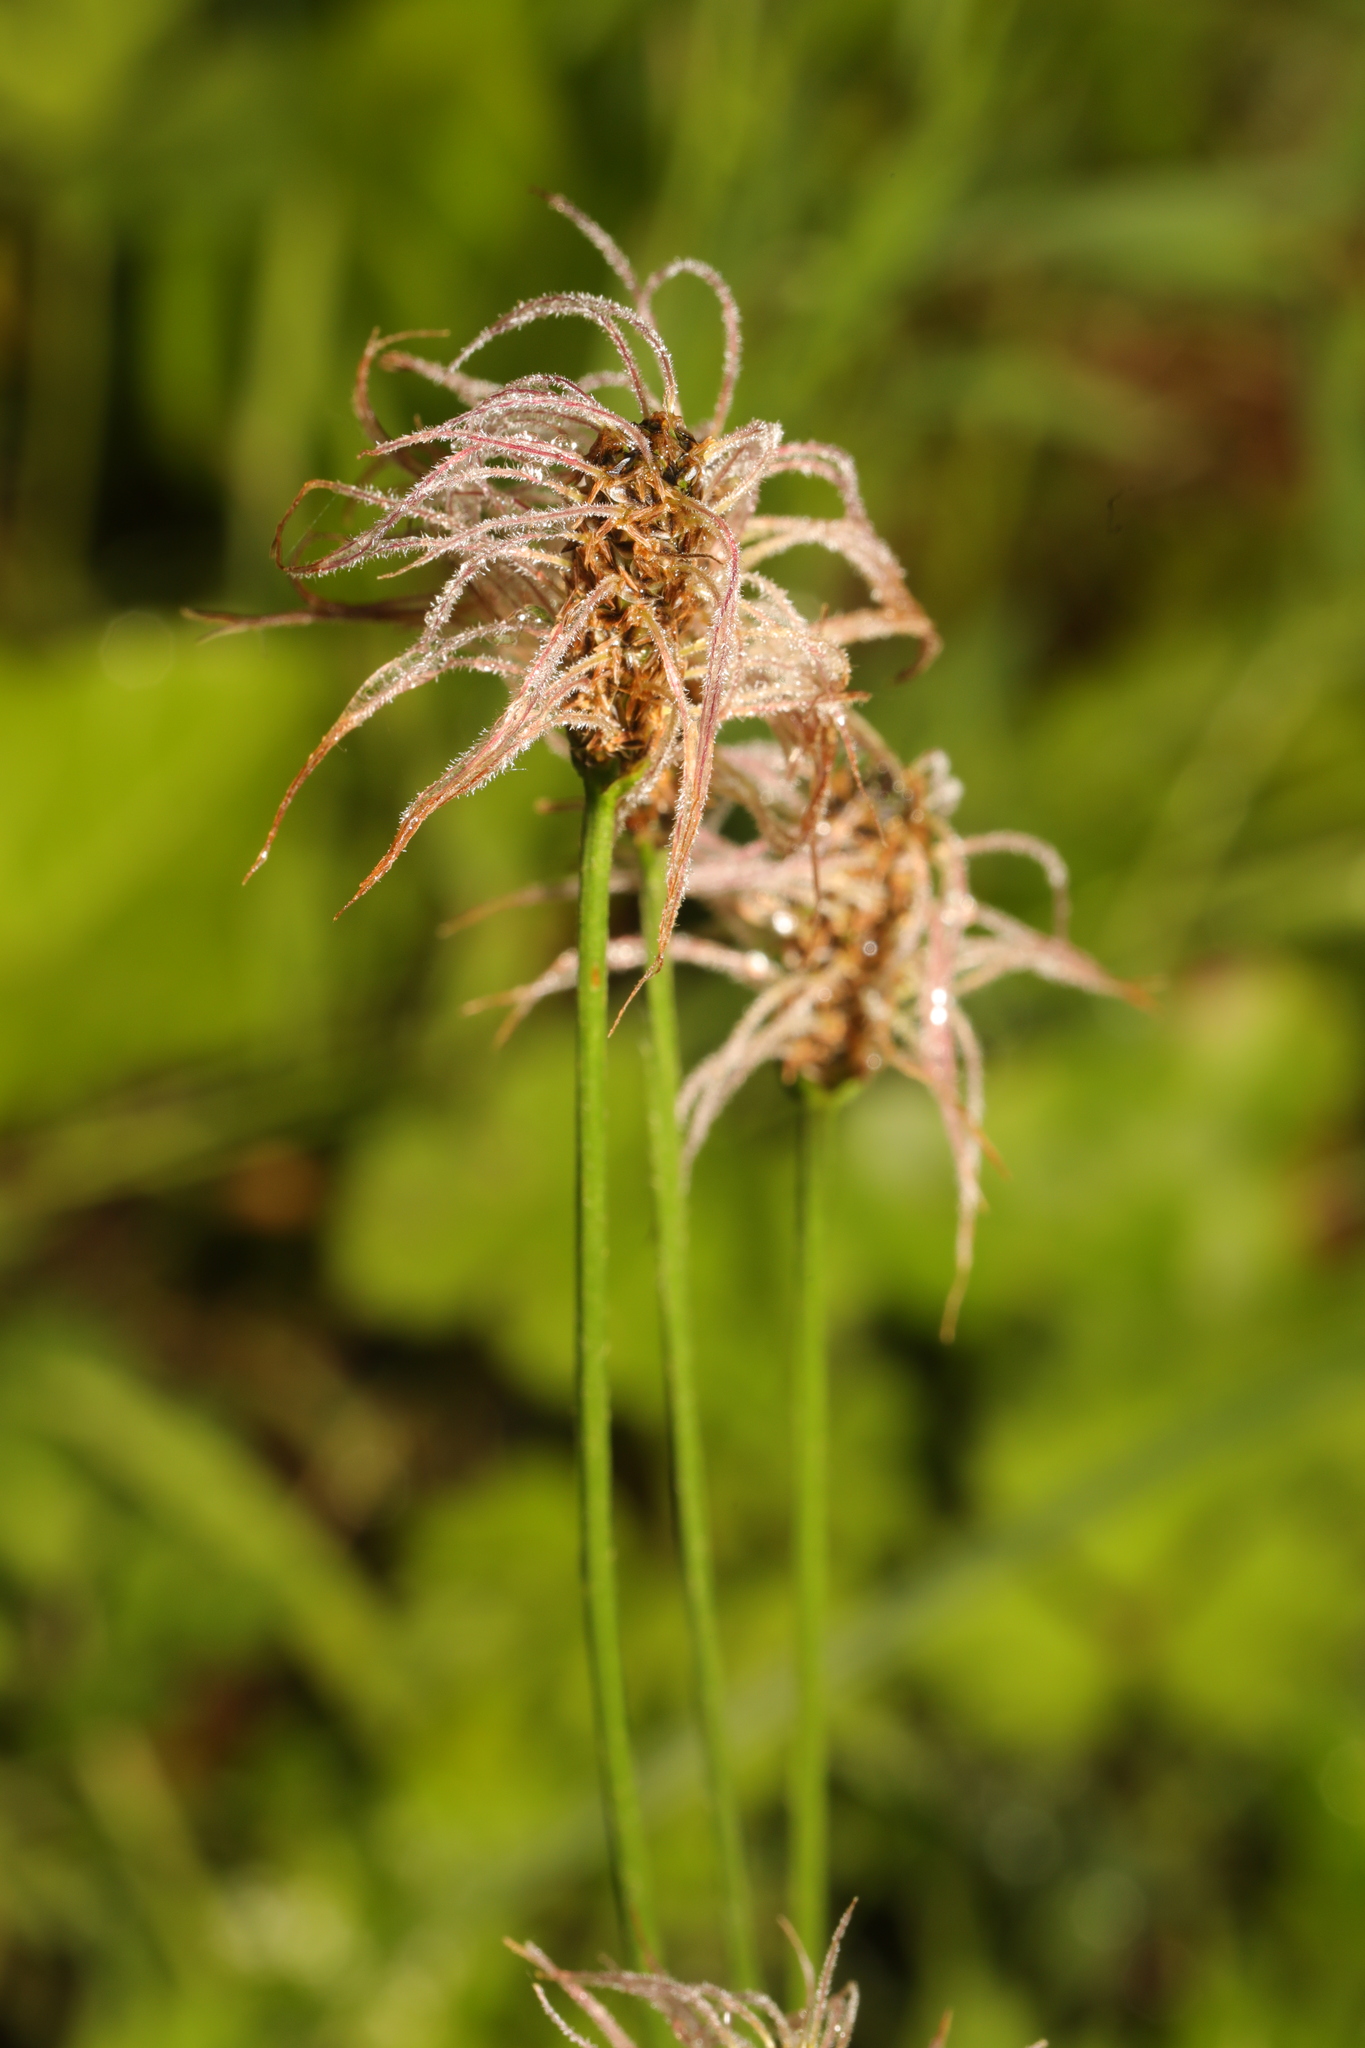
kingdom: Plantae
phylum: Tracheophyta
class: Magnoliopsida
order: Lamiales
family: Plantaginaceae
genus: Plantago
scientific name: Plantago lanceolata
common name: Ribwort plantain
